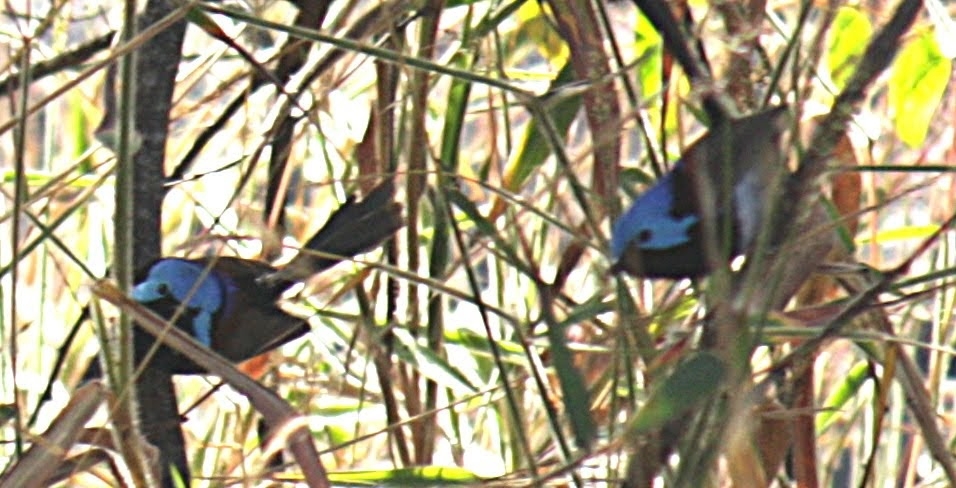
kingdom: Animalia
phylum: Chordata
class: Aves
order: Passeriformes
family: Maluridae
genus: Malurus
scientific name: Malurus lamberti
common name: Variegated fairywren
